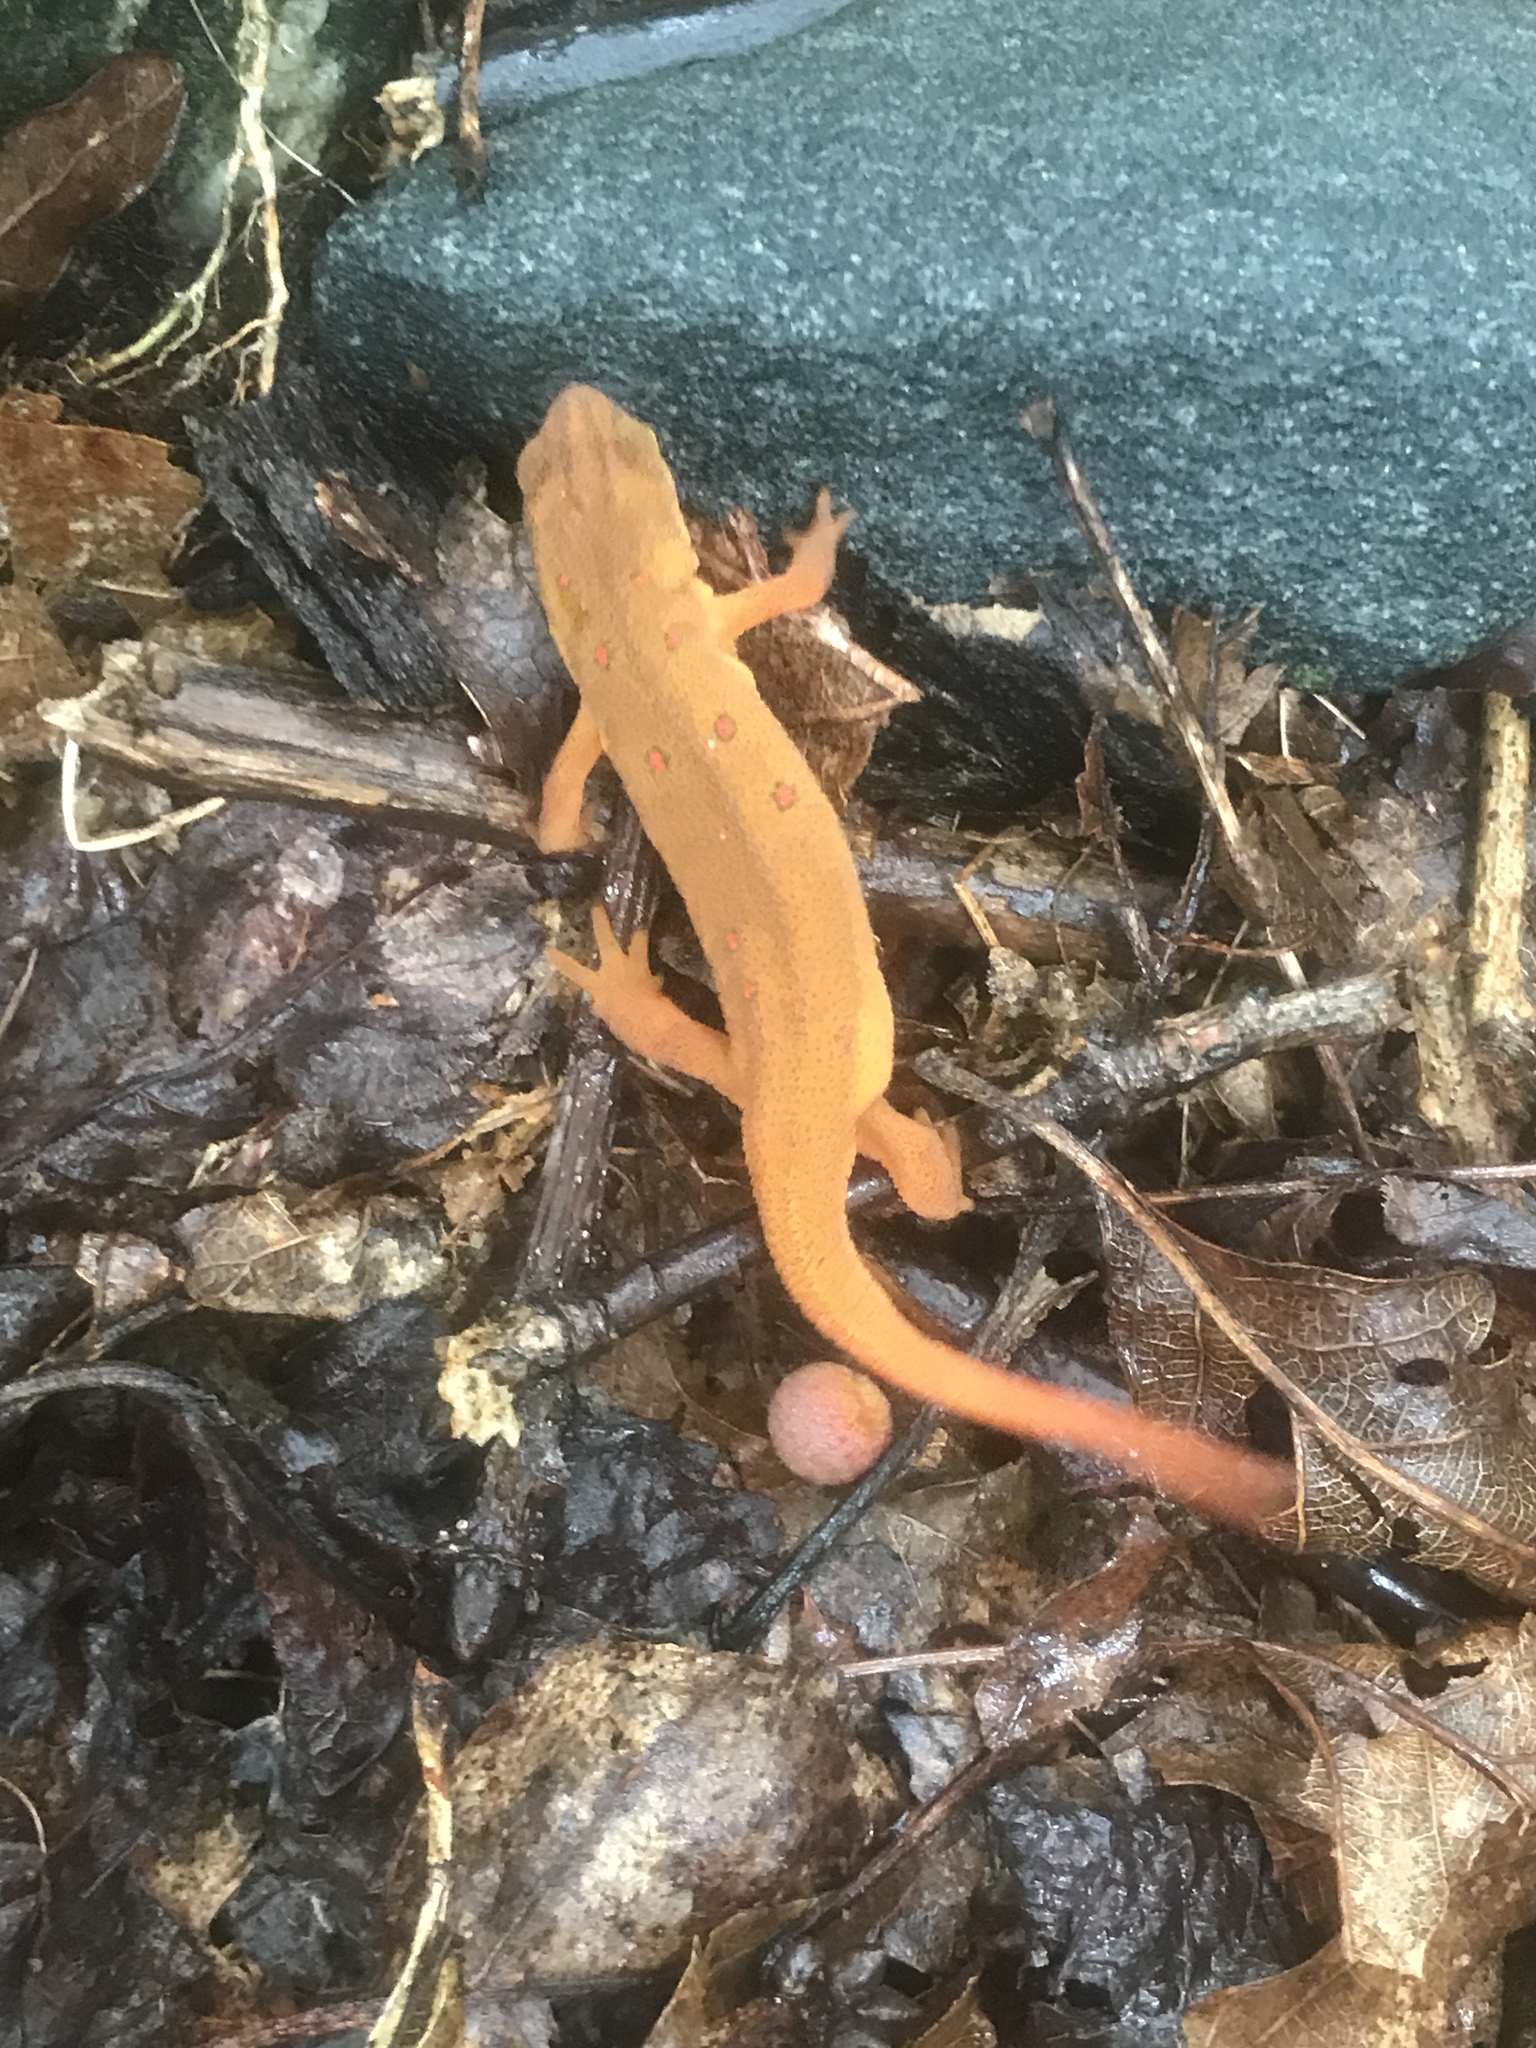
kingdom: Animalia
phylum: Chordata
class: Amphibia
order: Caudata
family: Salamandridae
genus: Notophthalmus
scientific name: Notophthalmus viridescens
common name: Eastern newt
